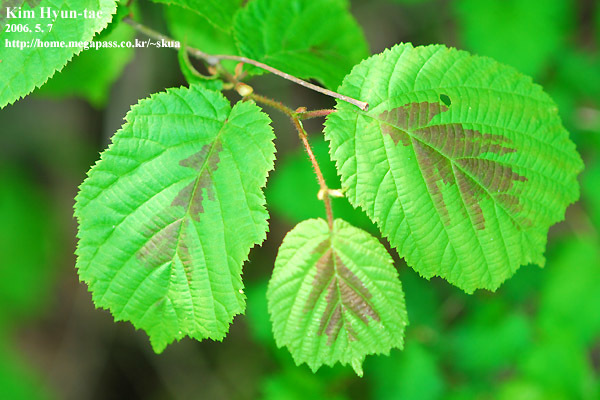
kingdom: Plantae
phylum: Tracheophyta
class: Magnoliopsida
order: Fagales
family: Betulaceae
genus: Corylus
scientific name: Corylus heterophylla
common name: Siberian hazelnut
